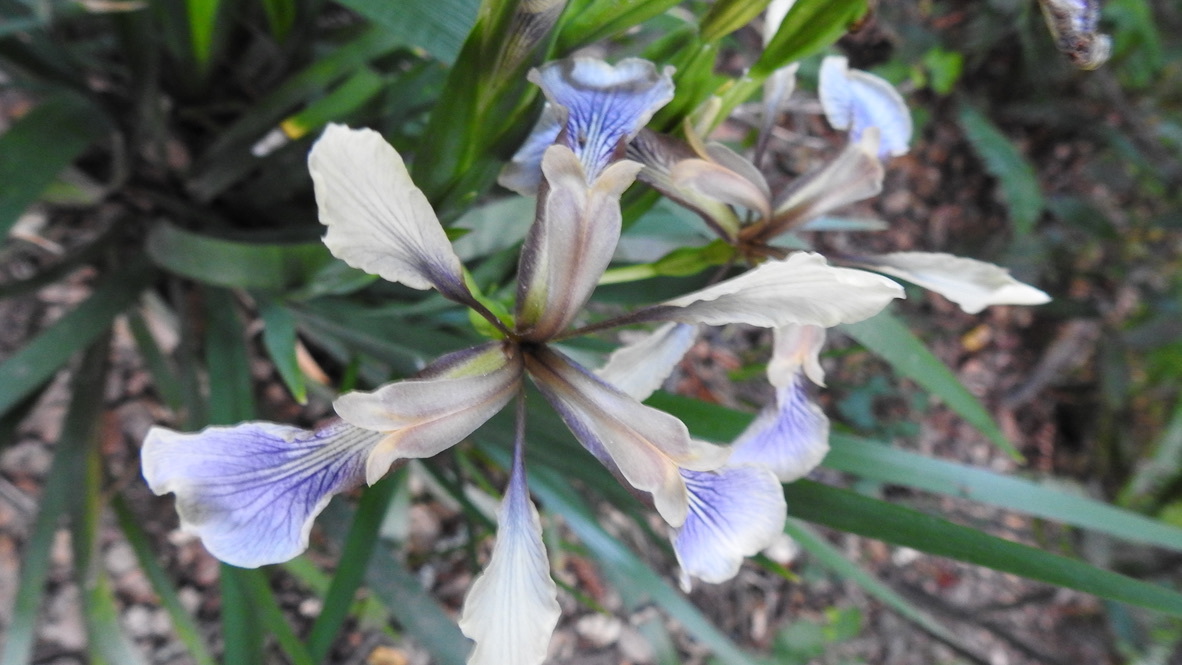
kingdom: Plantae
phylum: Tracheophyta
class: Liliopsida
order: Asparagales
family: Iridaceae
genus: Iris
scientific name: Iris foetidissima
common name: Stinking iris
